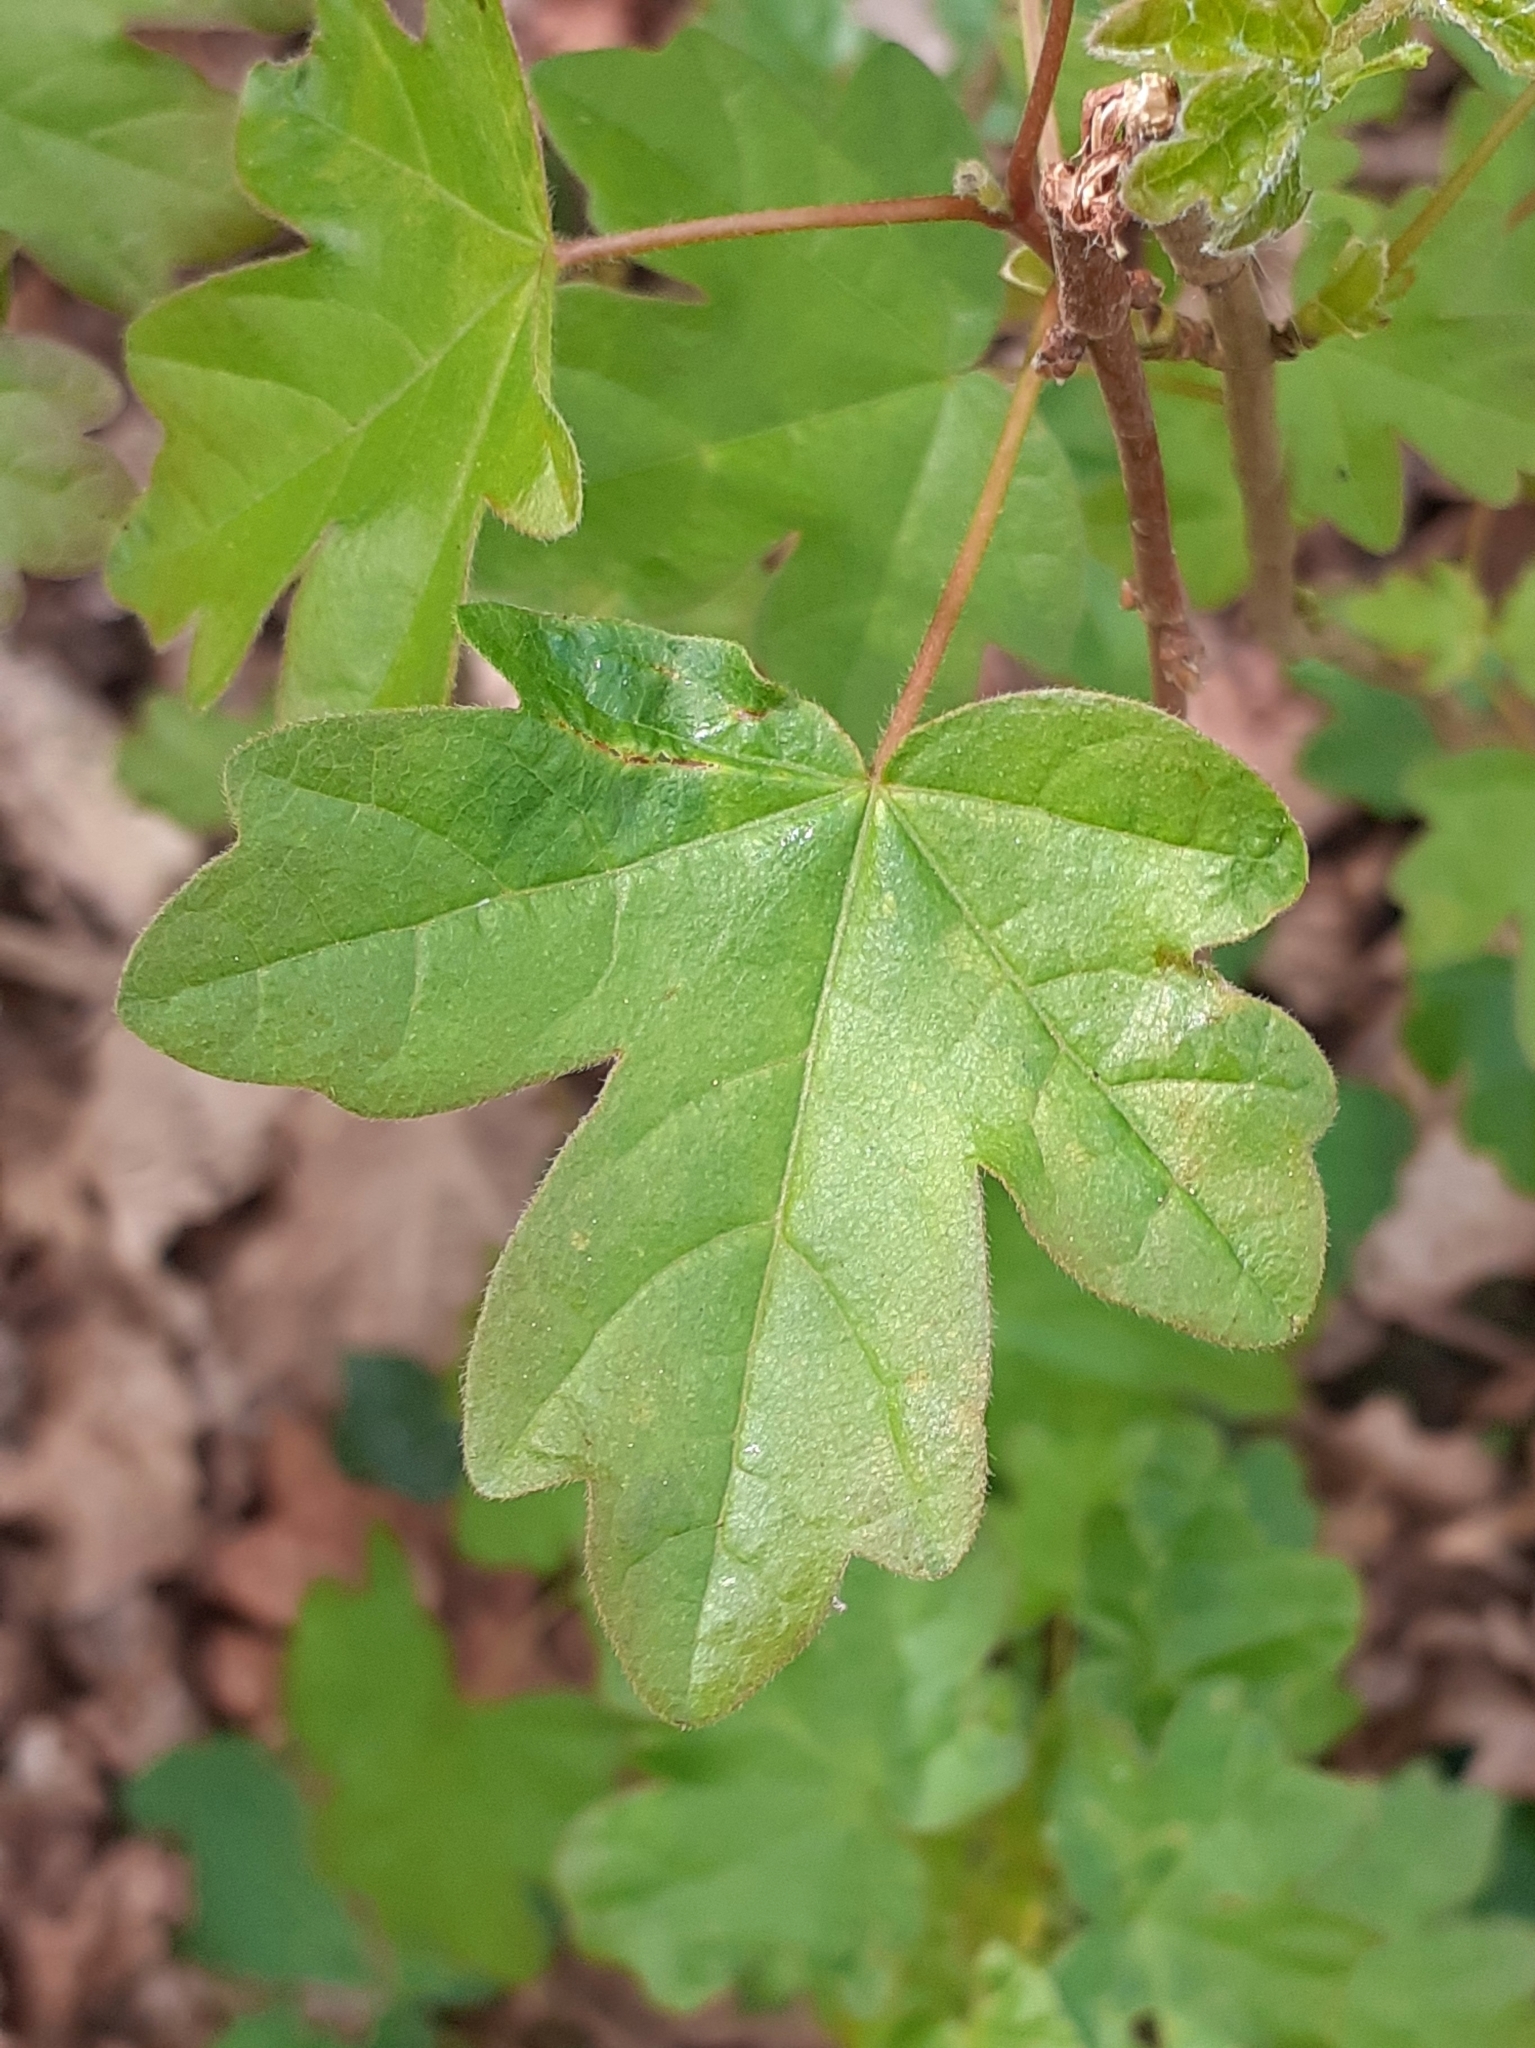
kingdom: Plantae
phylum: Tracheophyta
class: Magnoliopsida
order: Sapindales
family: Sapindaceae
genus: Acer
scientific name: Acer campestre
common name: Field maple
